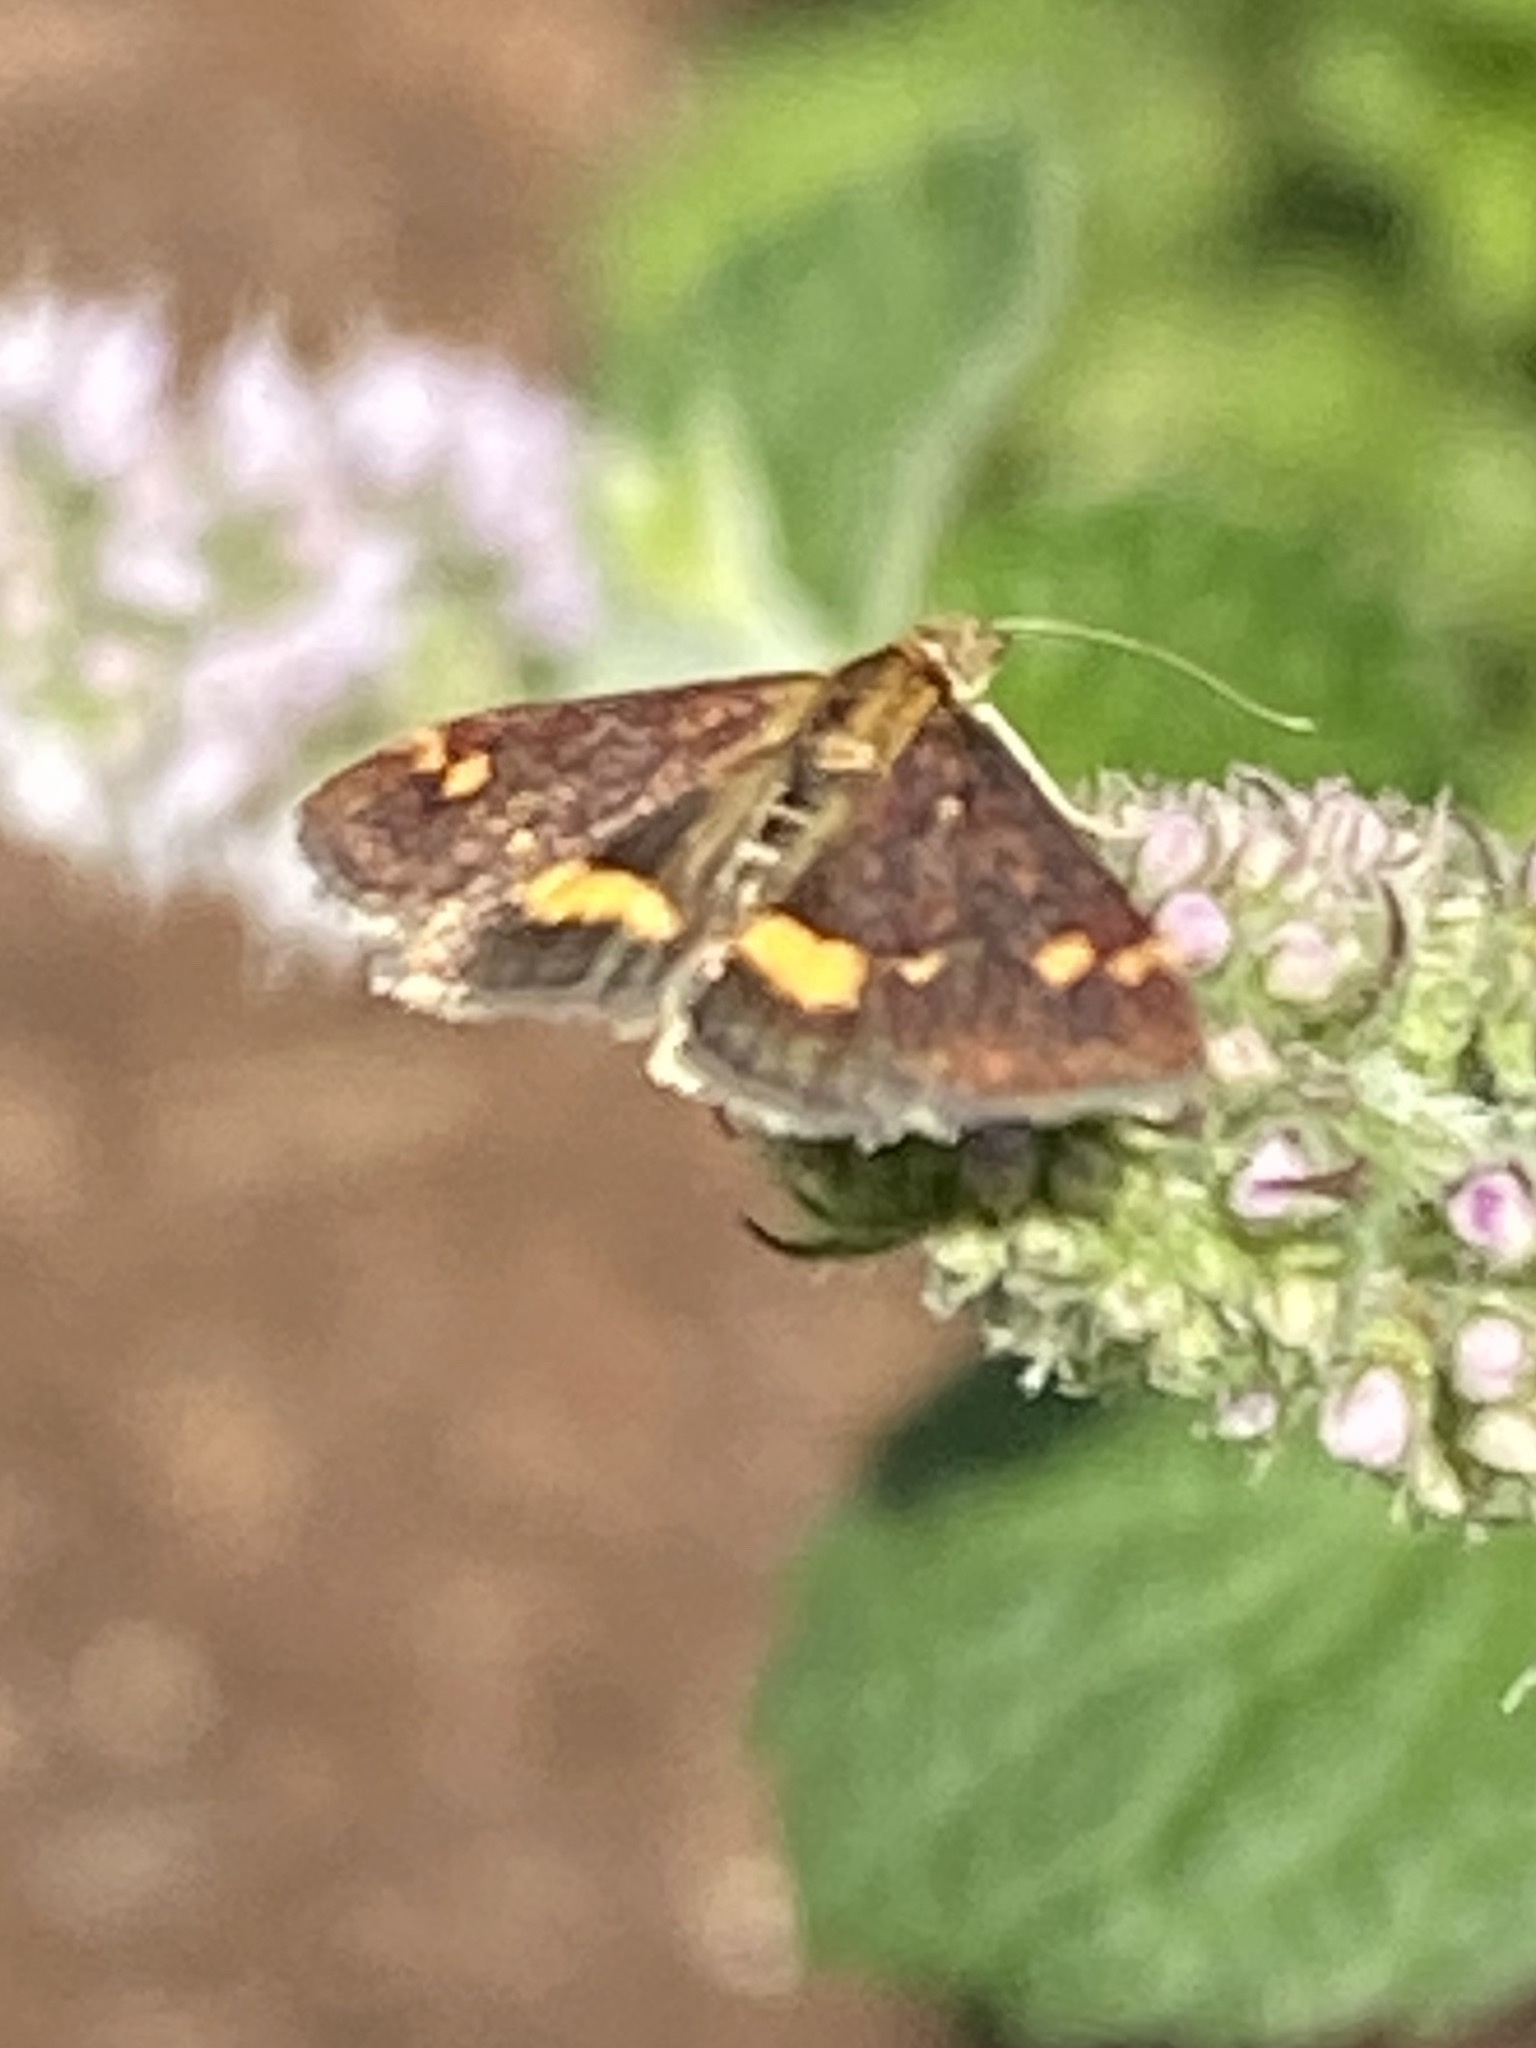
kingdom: Animalia
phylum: Arthropoda
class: Insecta
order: Lepidoptera
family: Crambidae
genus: Pyrausta
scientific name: Pyrausta aurata
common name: Small purple & gold
